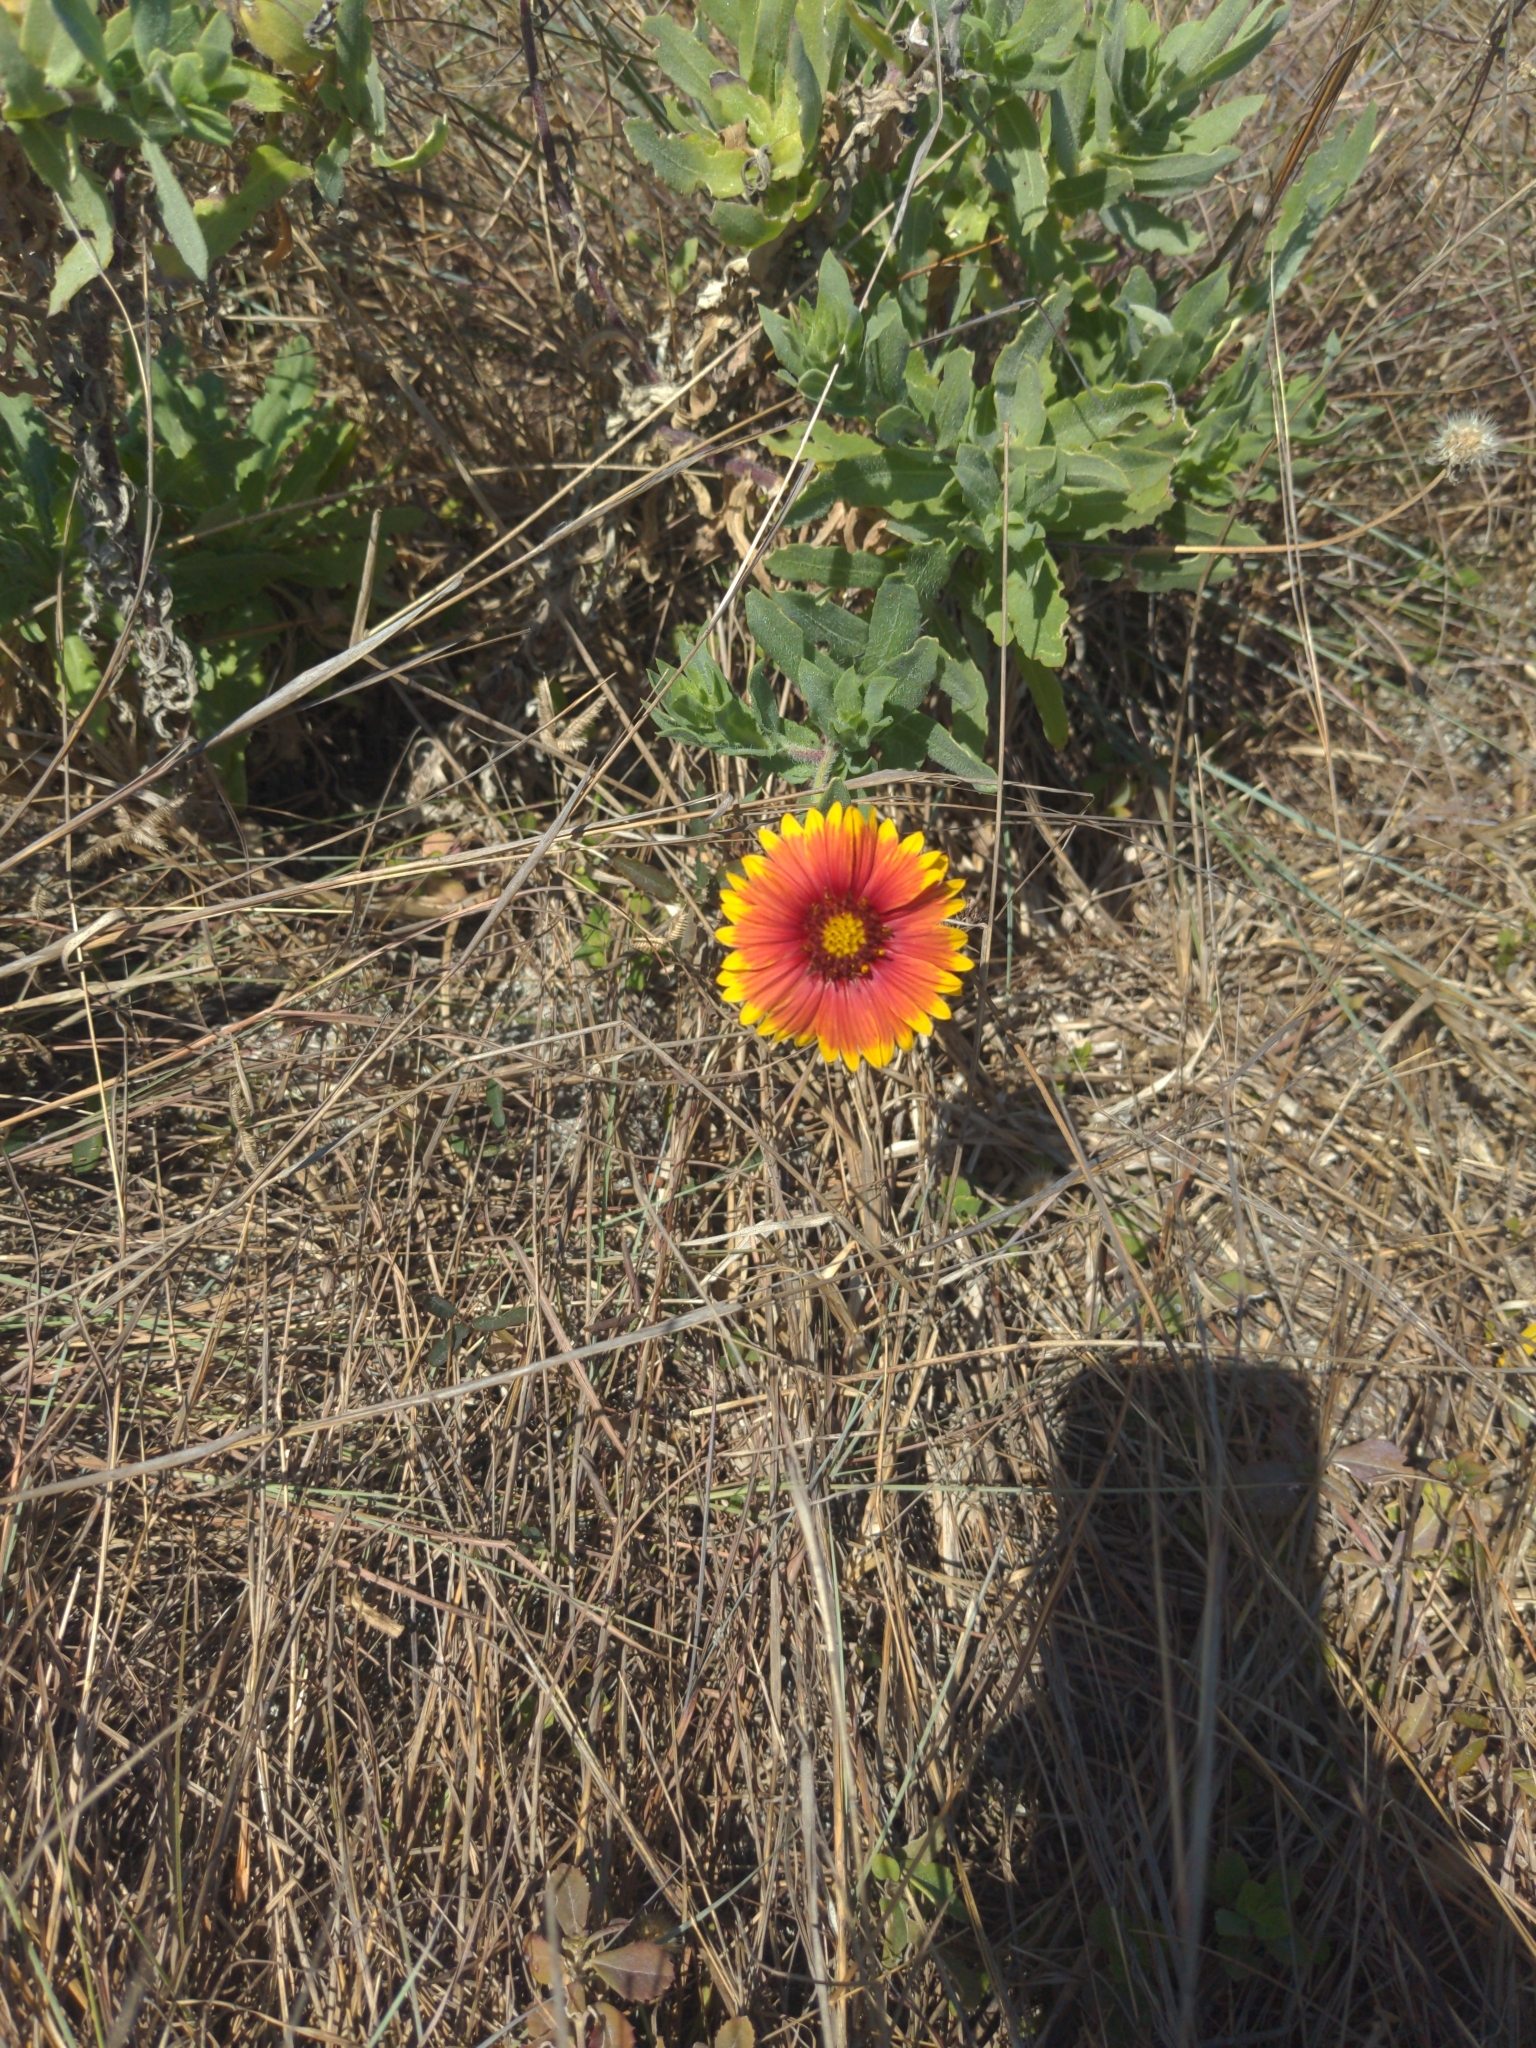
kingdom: Plantae
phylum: Tracheophyta
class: Magnoliopsida
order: Asterales
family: Asteraceae
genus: Gaillardia
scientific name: Gaillardia pulchella
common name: Firewheel
